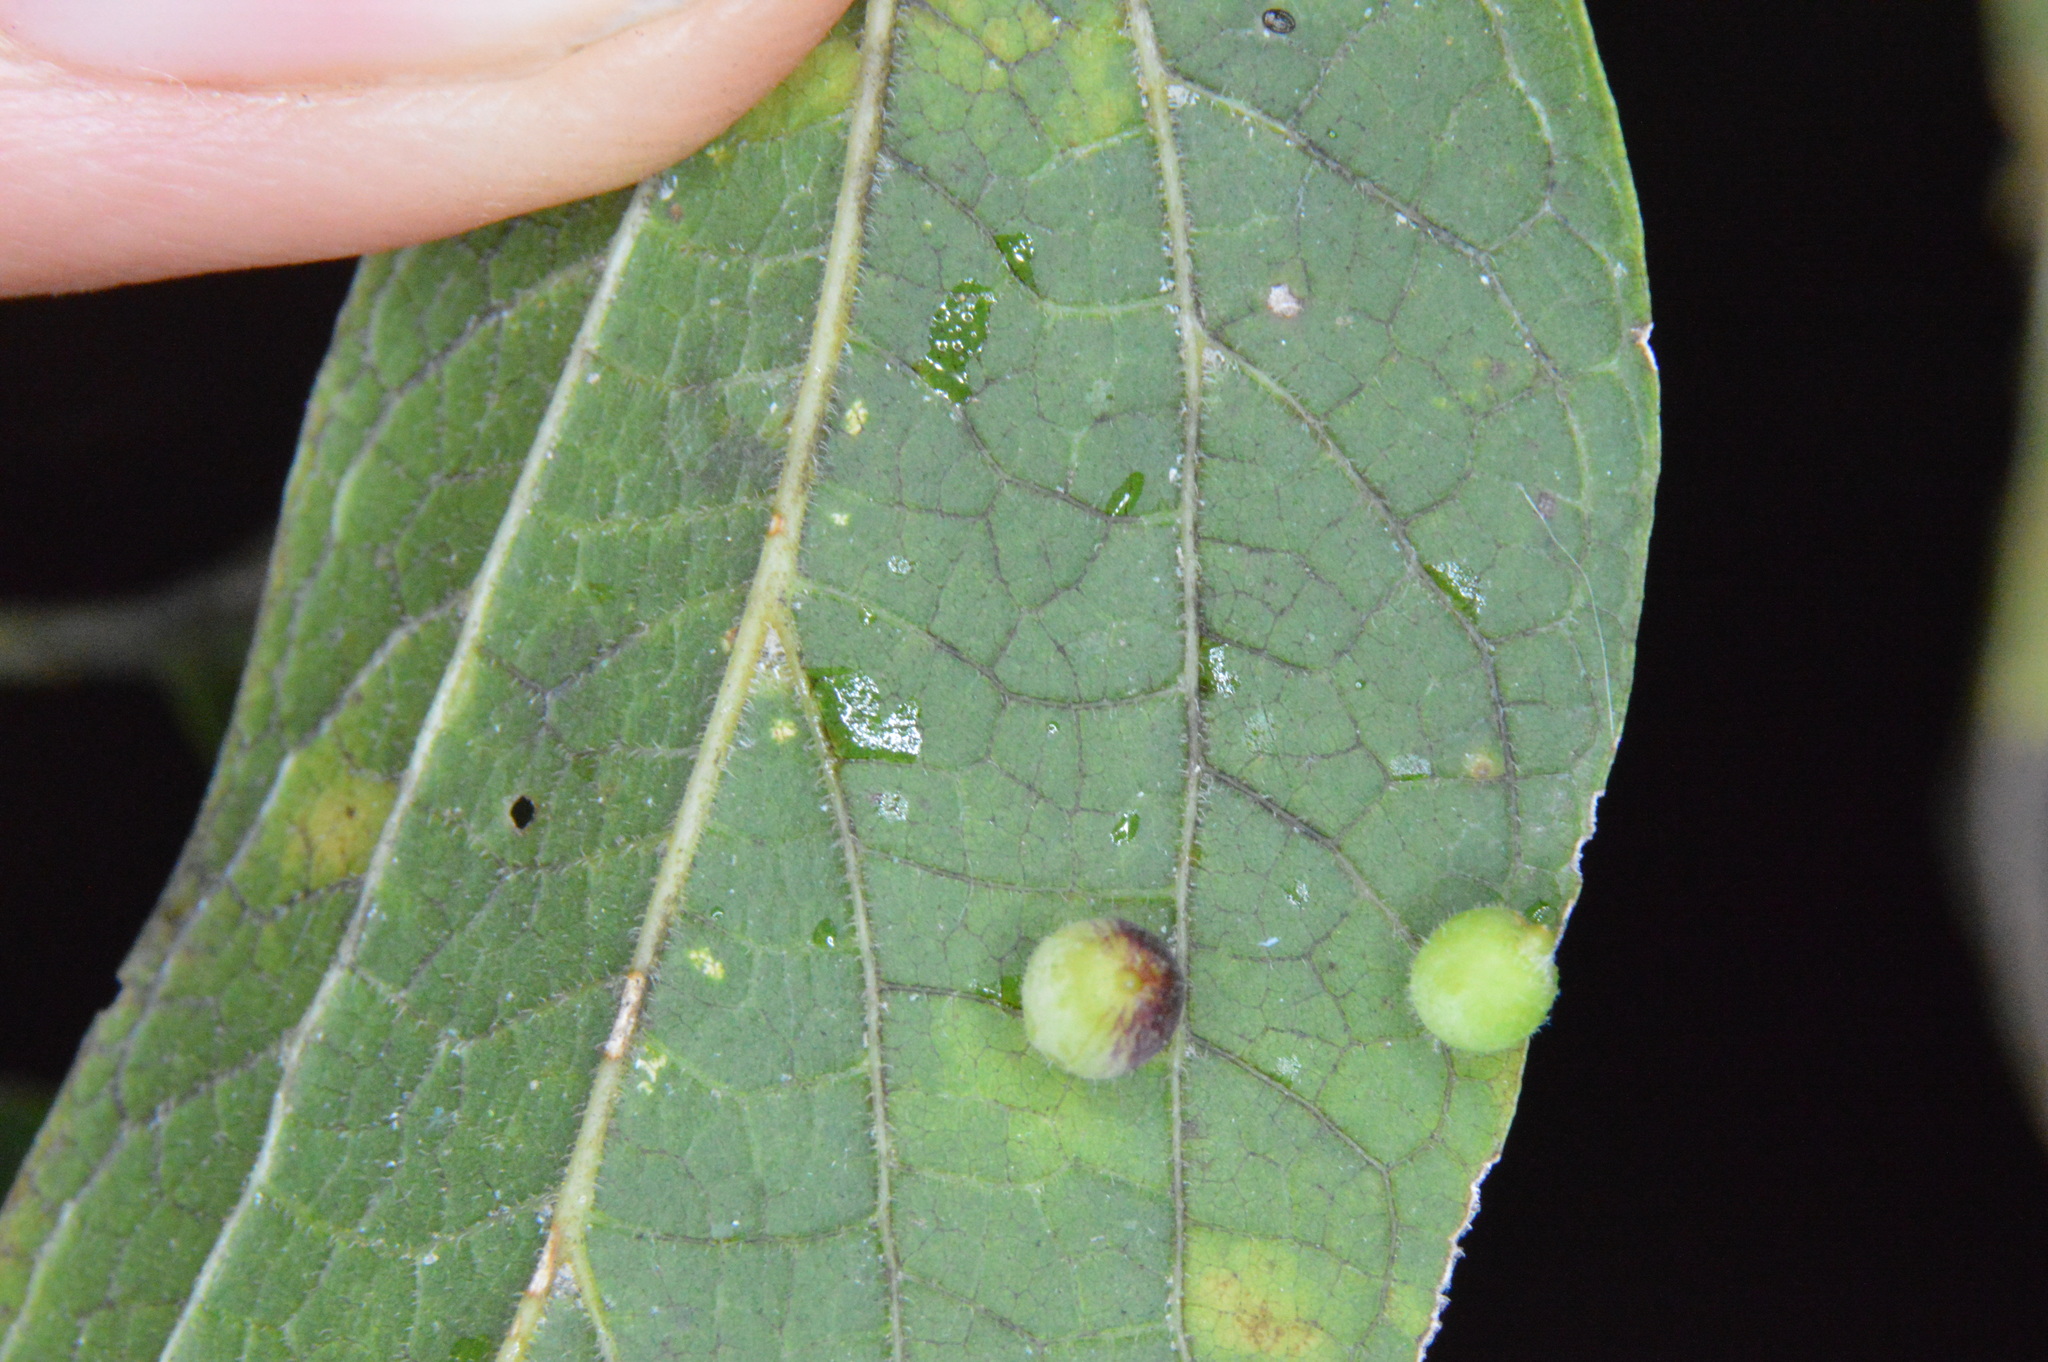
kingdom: Animalia
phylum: Arthropoda
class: Insecta
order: Diptera
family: Cecidomyiidae
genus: Celticecis
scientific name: Celticecis globosa
